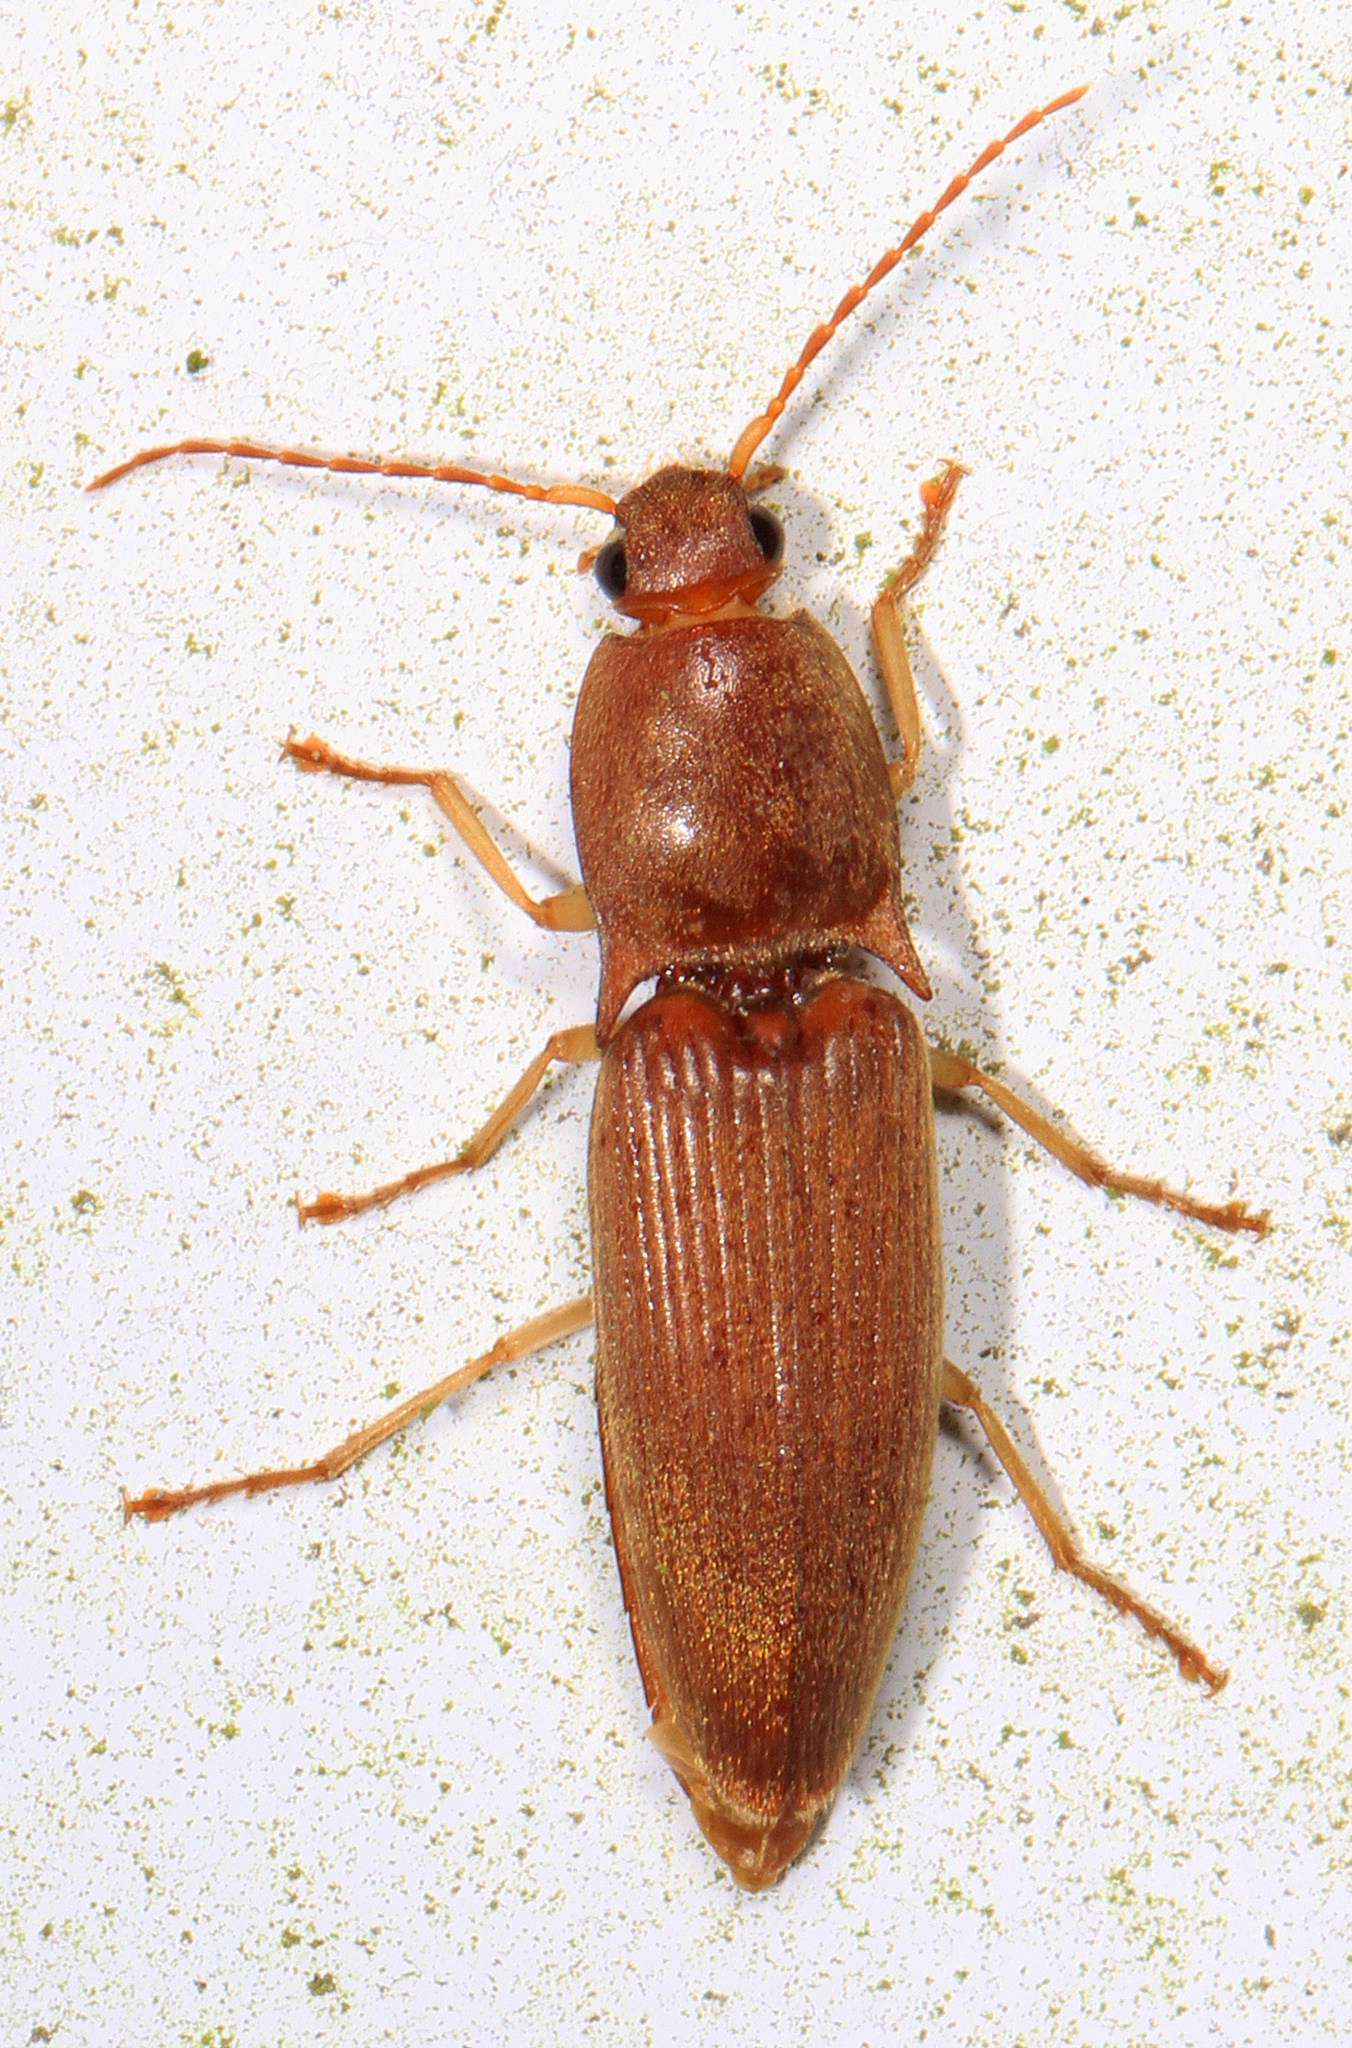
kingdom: Animalia
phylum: Arthropoda
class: Insecta
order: Coleoptera
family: Elateridae
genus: Monocrepidius
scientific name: Monocrepidius lividus
